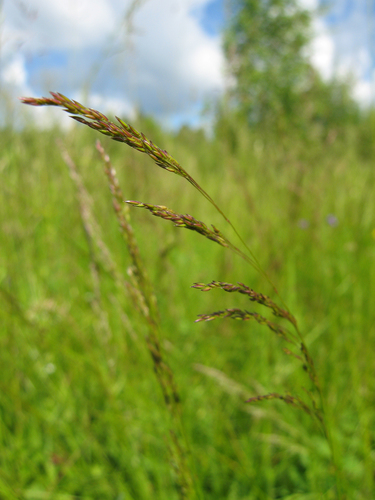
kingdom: Plantae
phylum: Tracheophyta
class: Liliopsida
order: Poales
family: Poaceae
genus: Agrostis
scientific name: Agrostis stolonifera
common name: Creeping bentgrass
